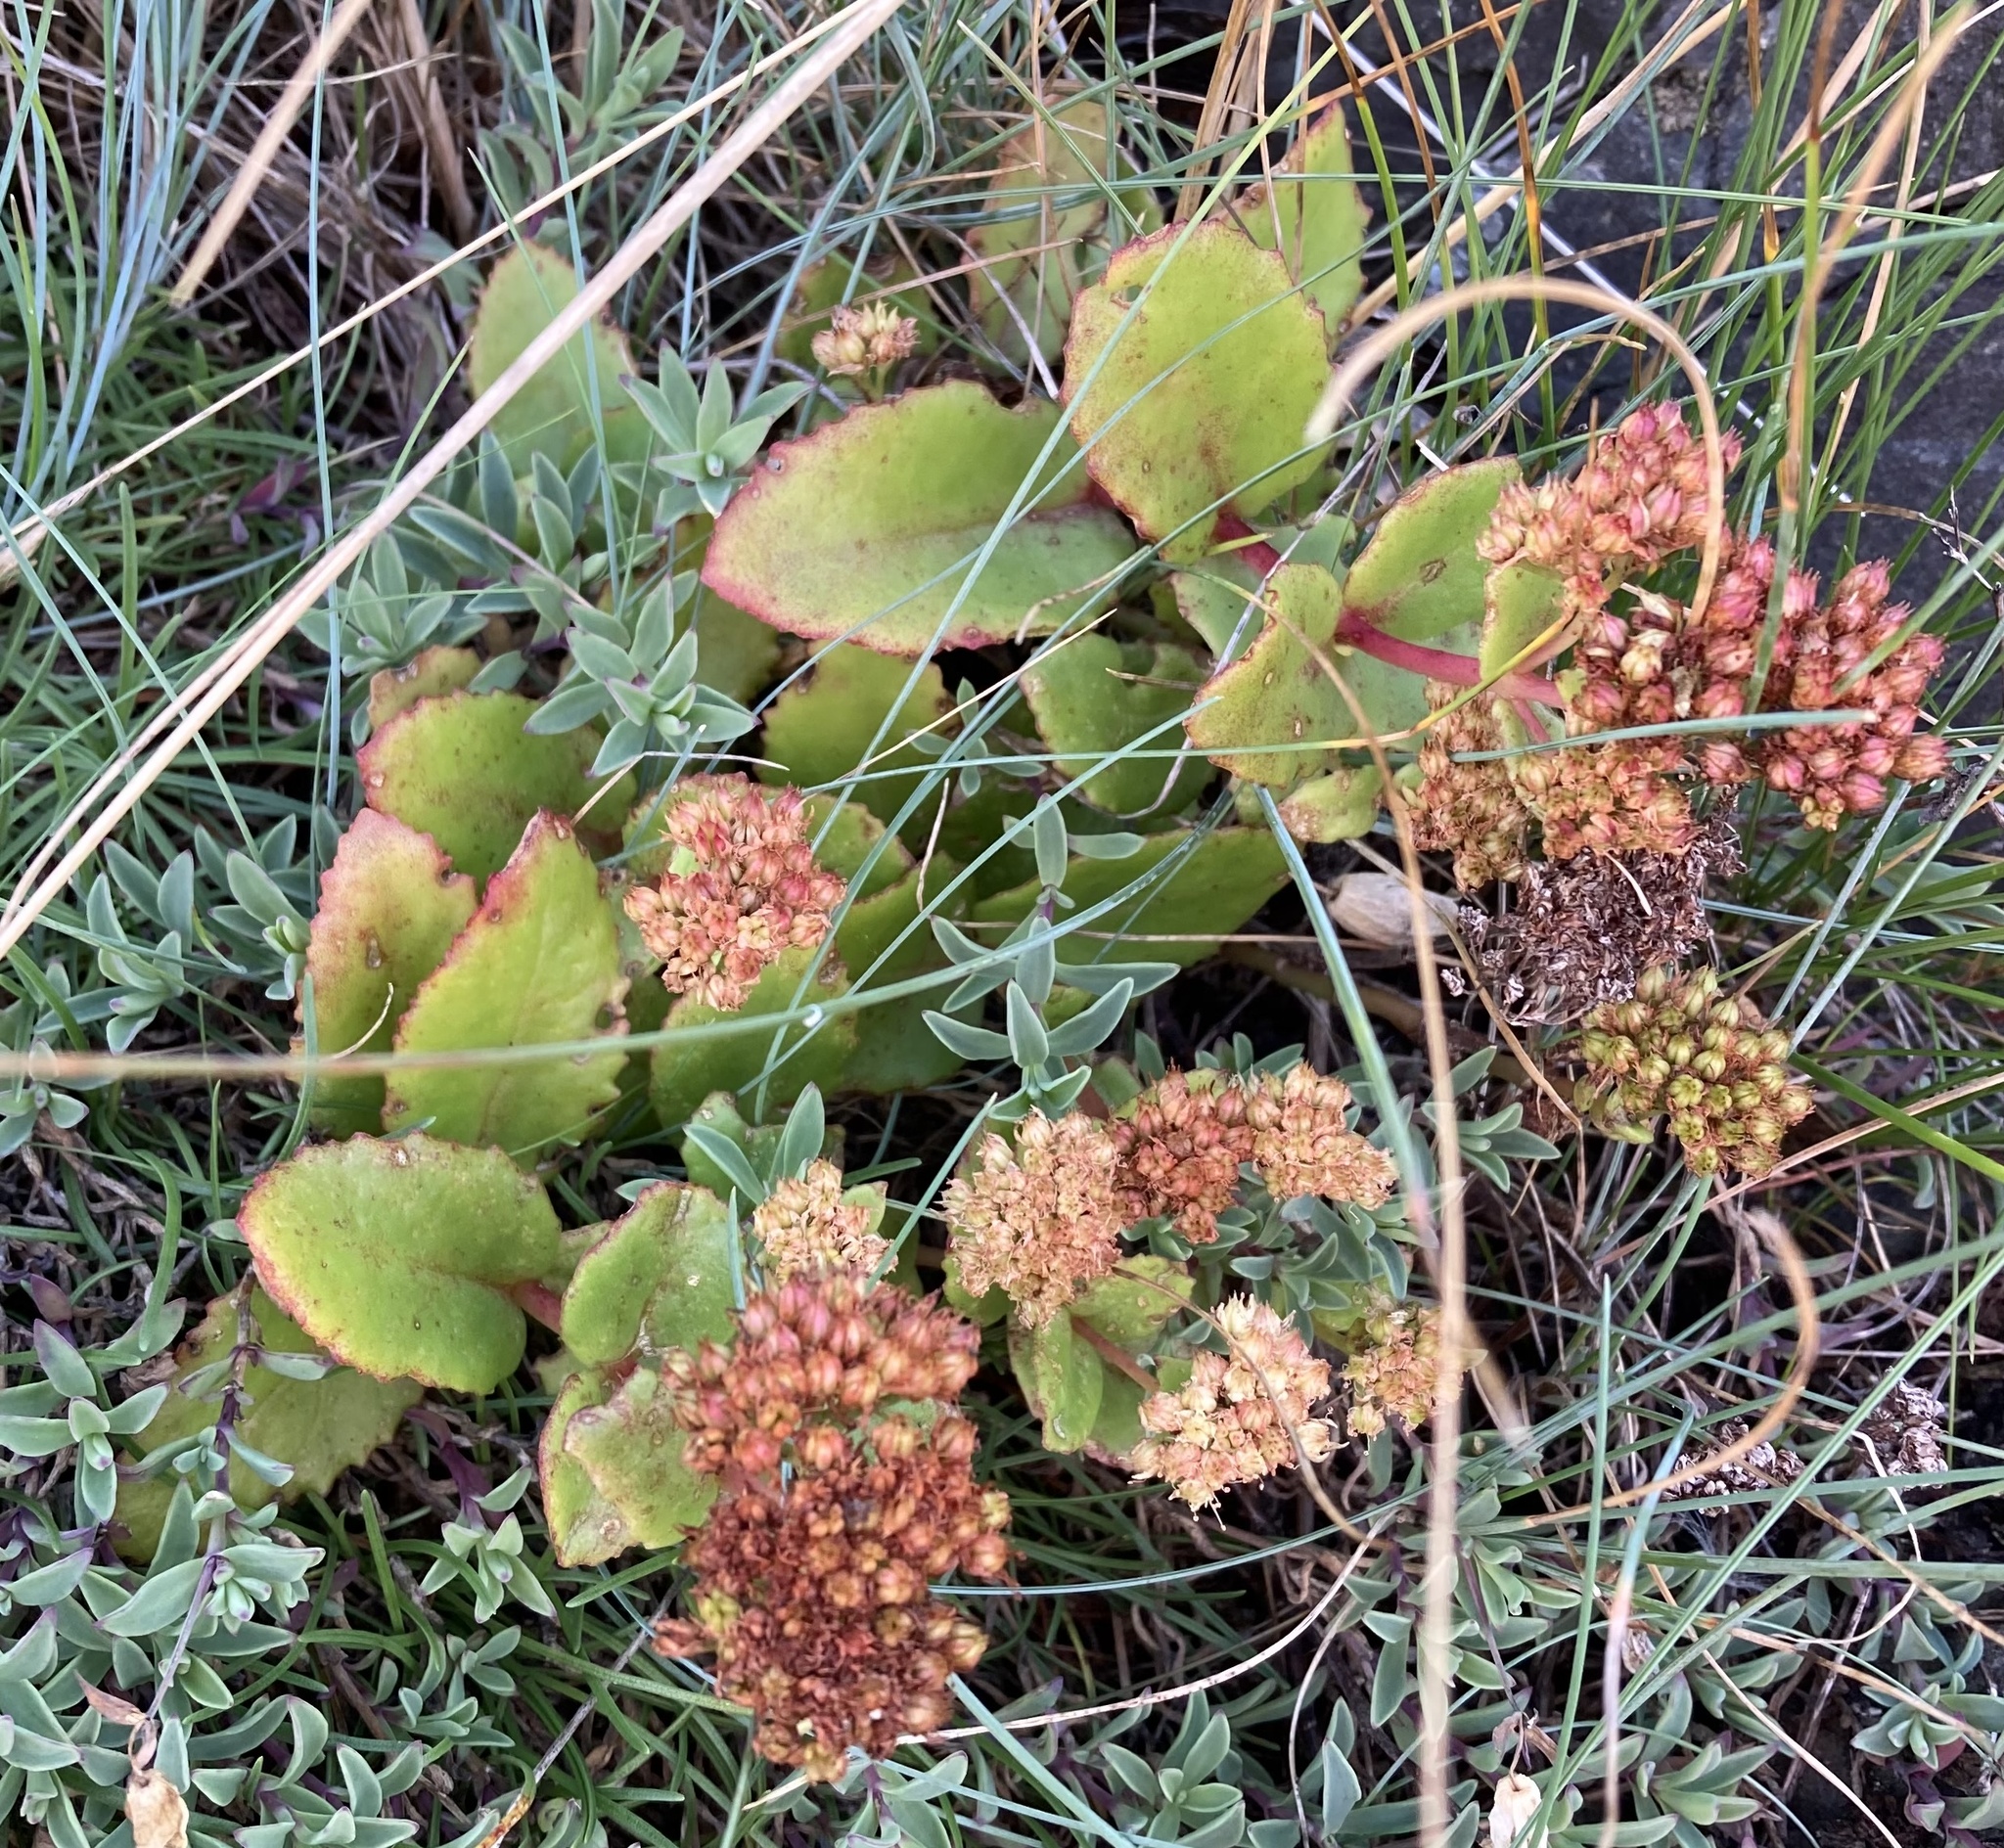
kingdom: Plantae
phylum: Tracheophyta
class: Magnoliopsida
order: Saxifragales
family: Crassulaceae
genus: Hylotelephium
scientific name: Hylotelephium maximum
